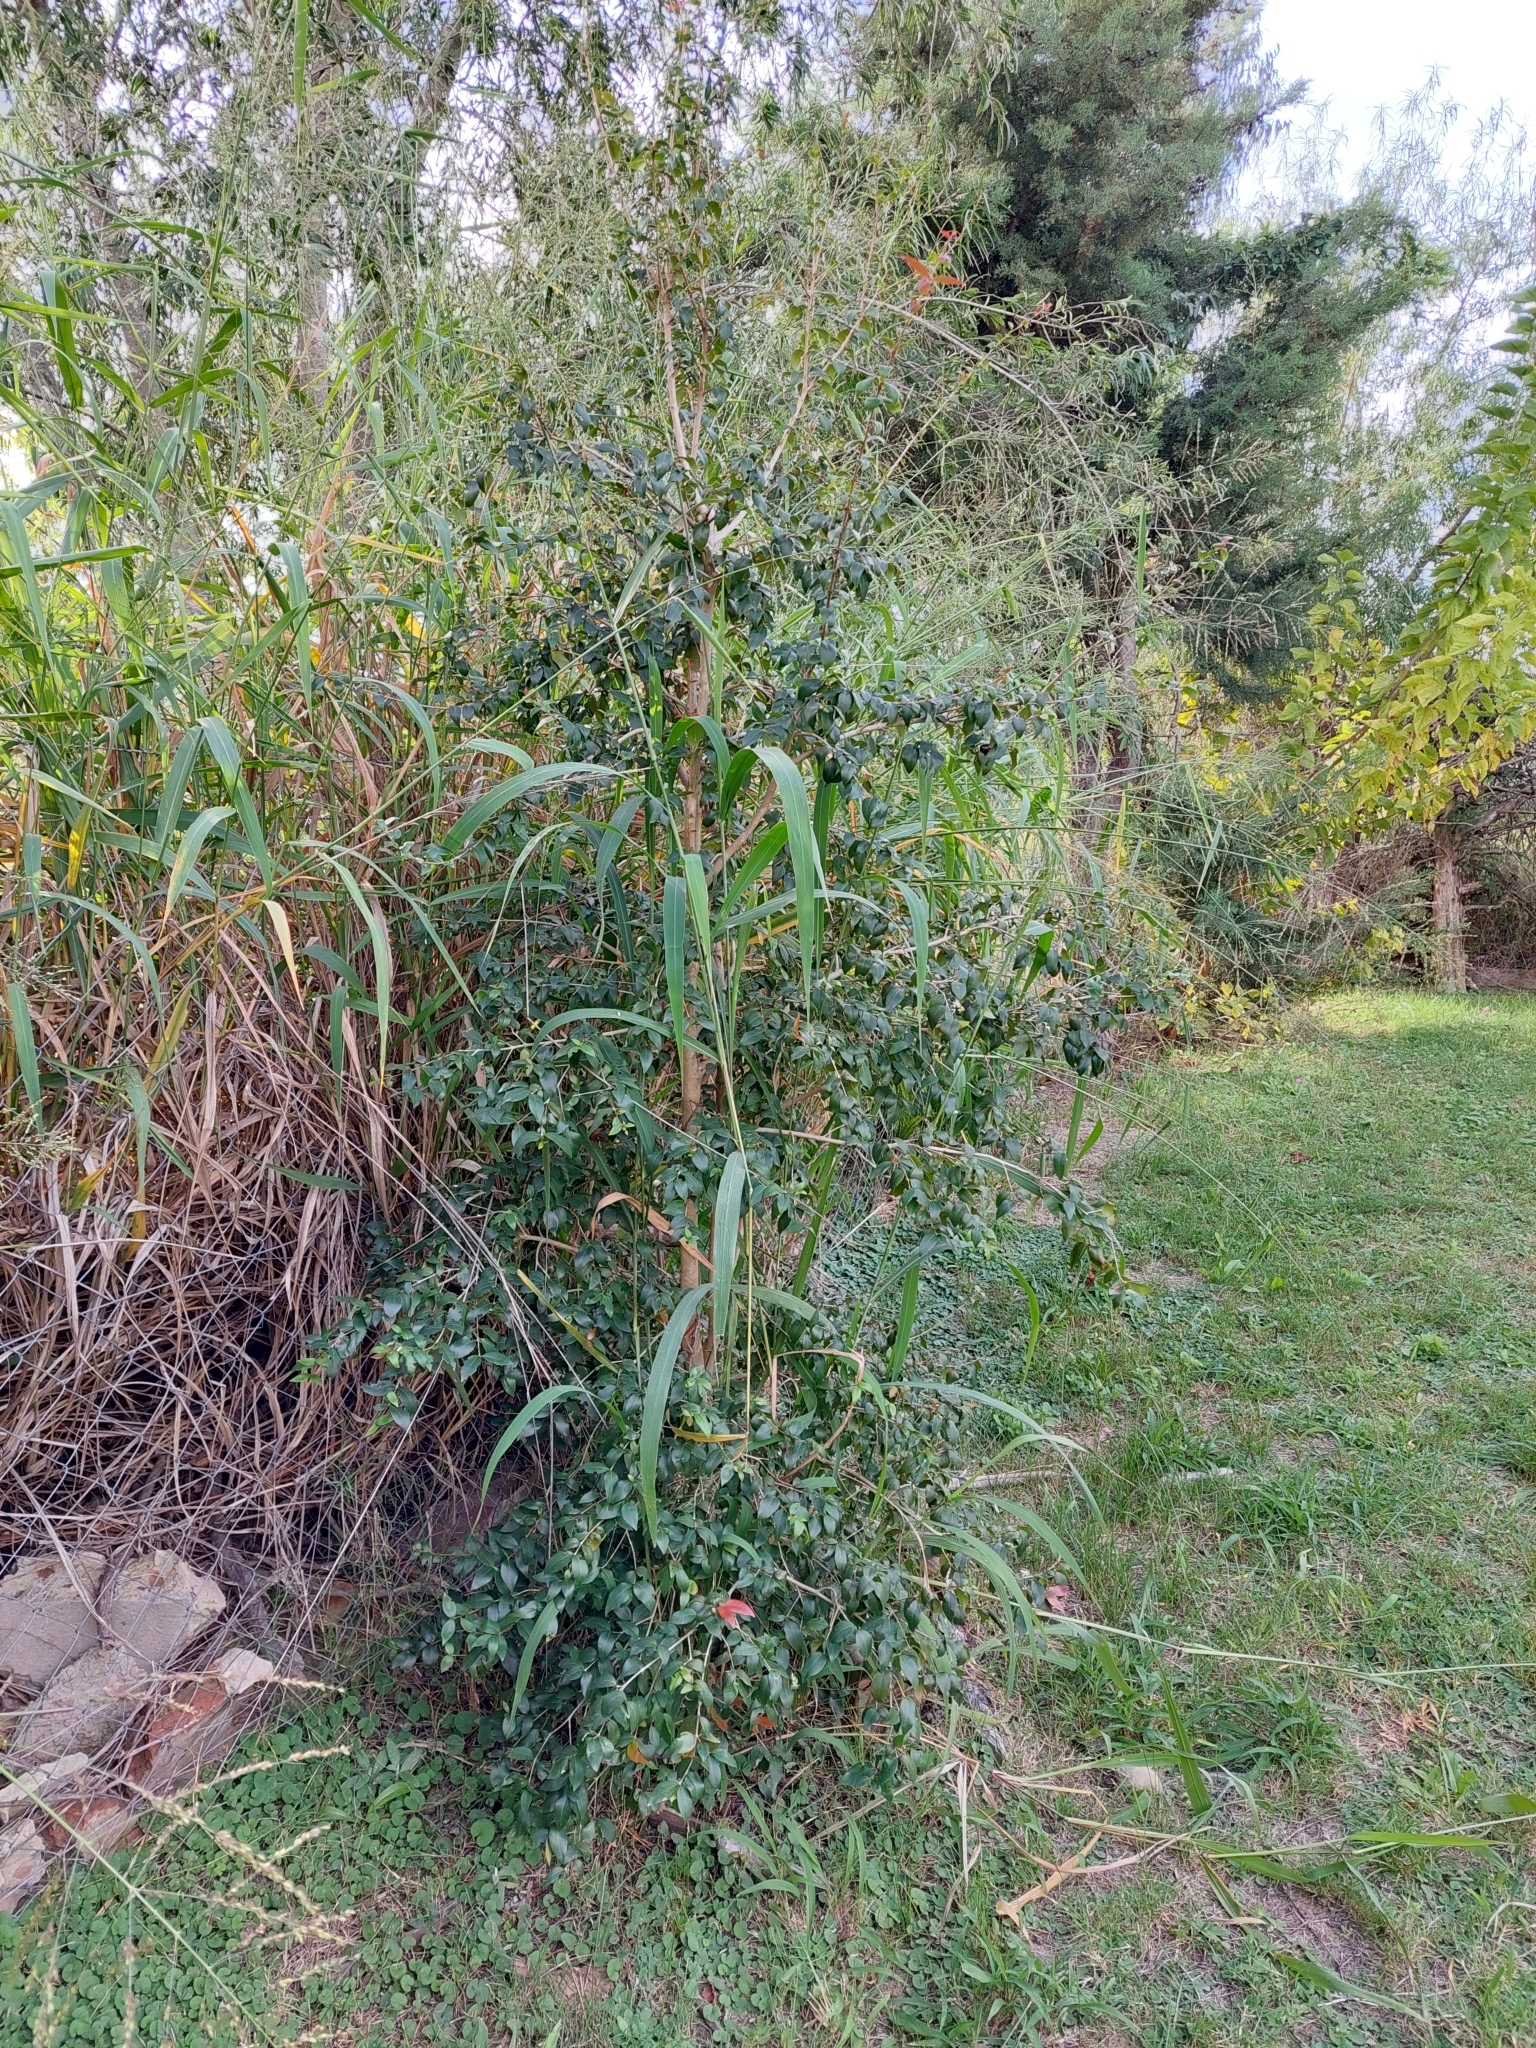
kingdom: Plantae
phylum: Tracheophyta
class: Magnoliopsida
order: Myrtales
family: Myrtaceae
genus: Eugenia
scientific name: Eugenia uniflora
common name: Surinam cherry
